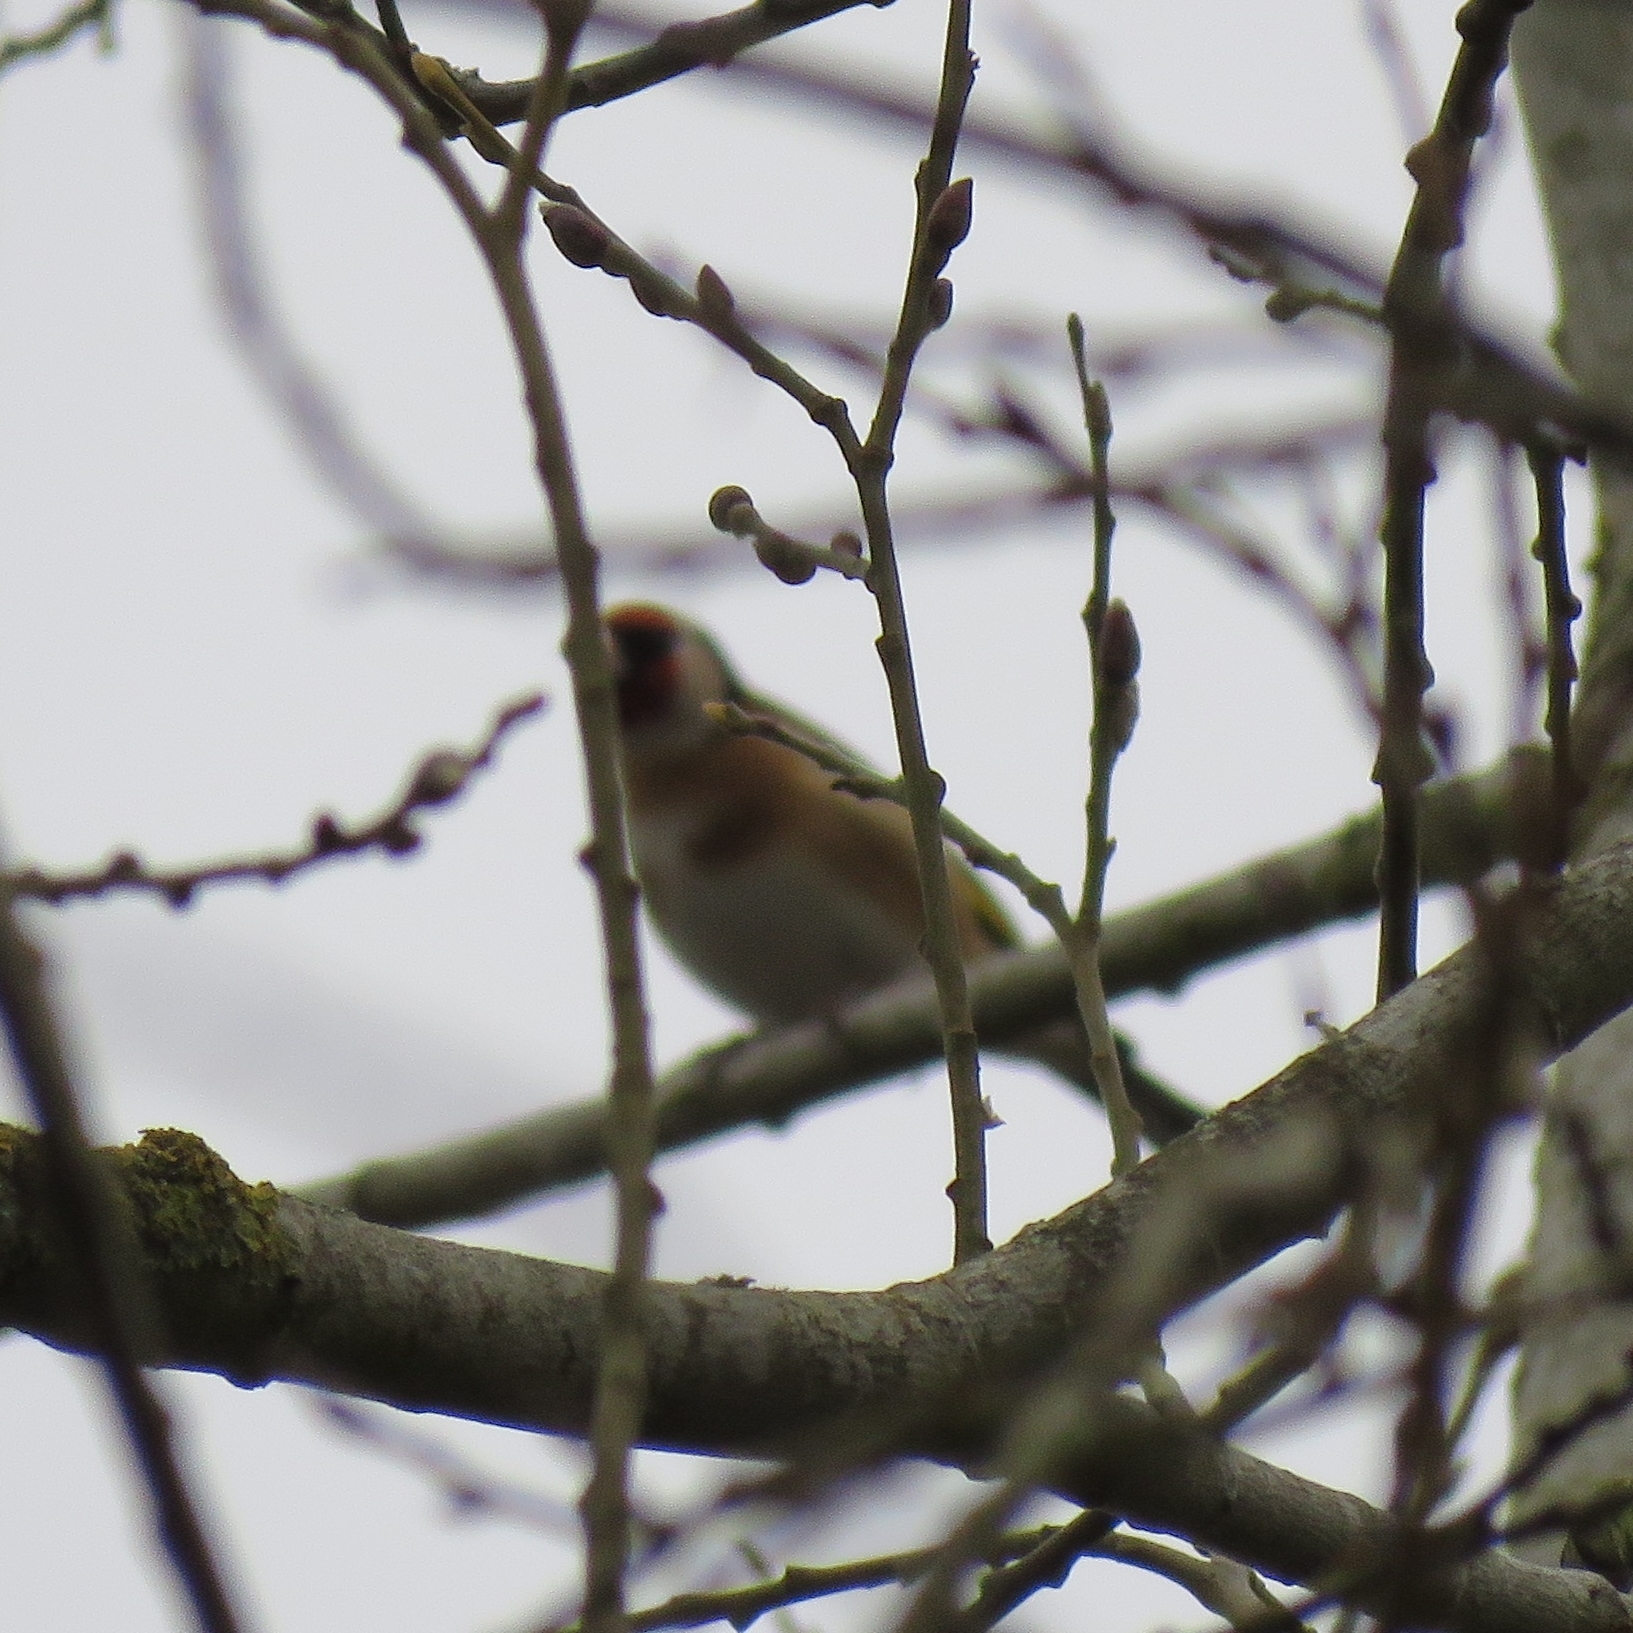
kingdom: Animalia
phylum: Chordata
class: Aves
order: Passeriformes
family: Fringillidae
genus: Carduelis
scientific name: Carduelis carduelis
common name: European goldfinch
